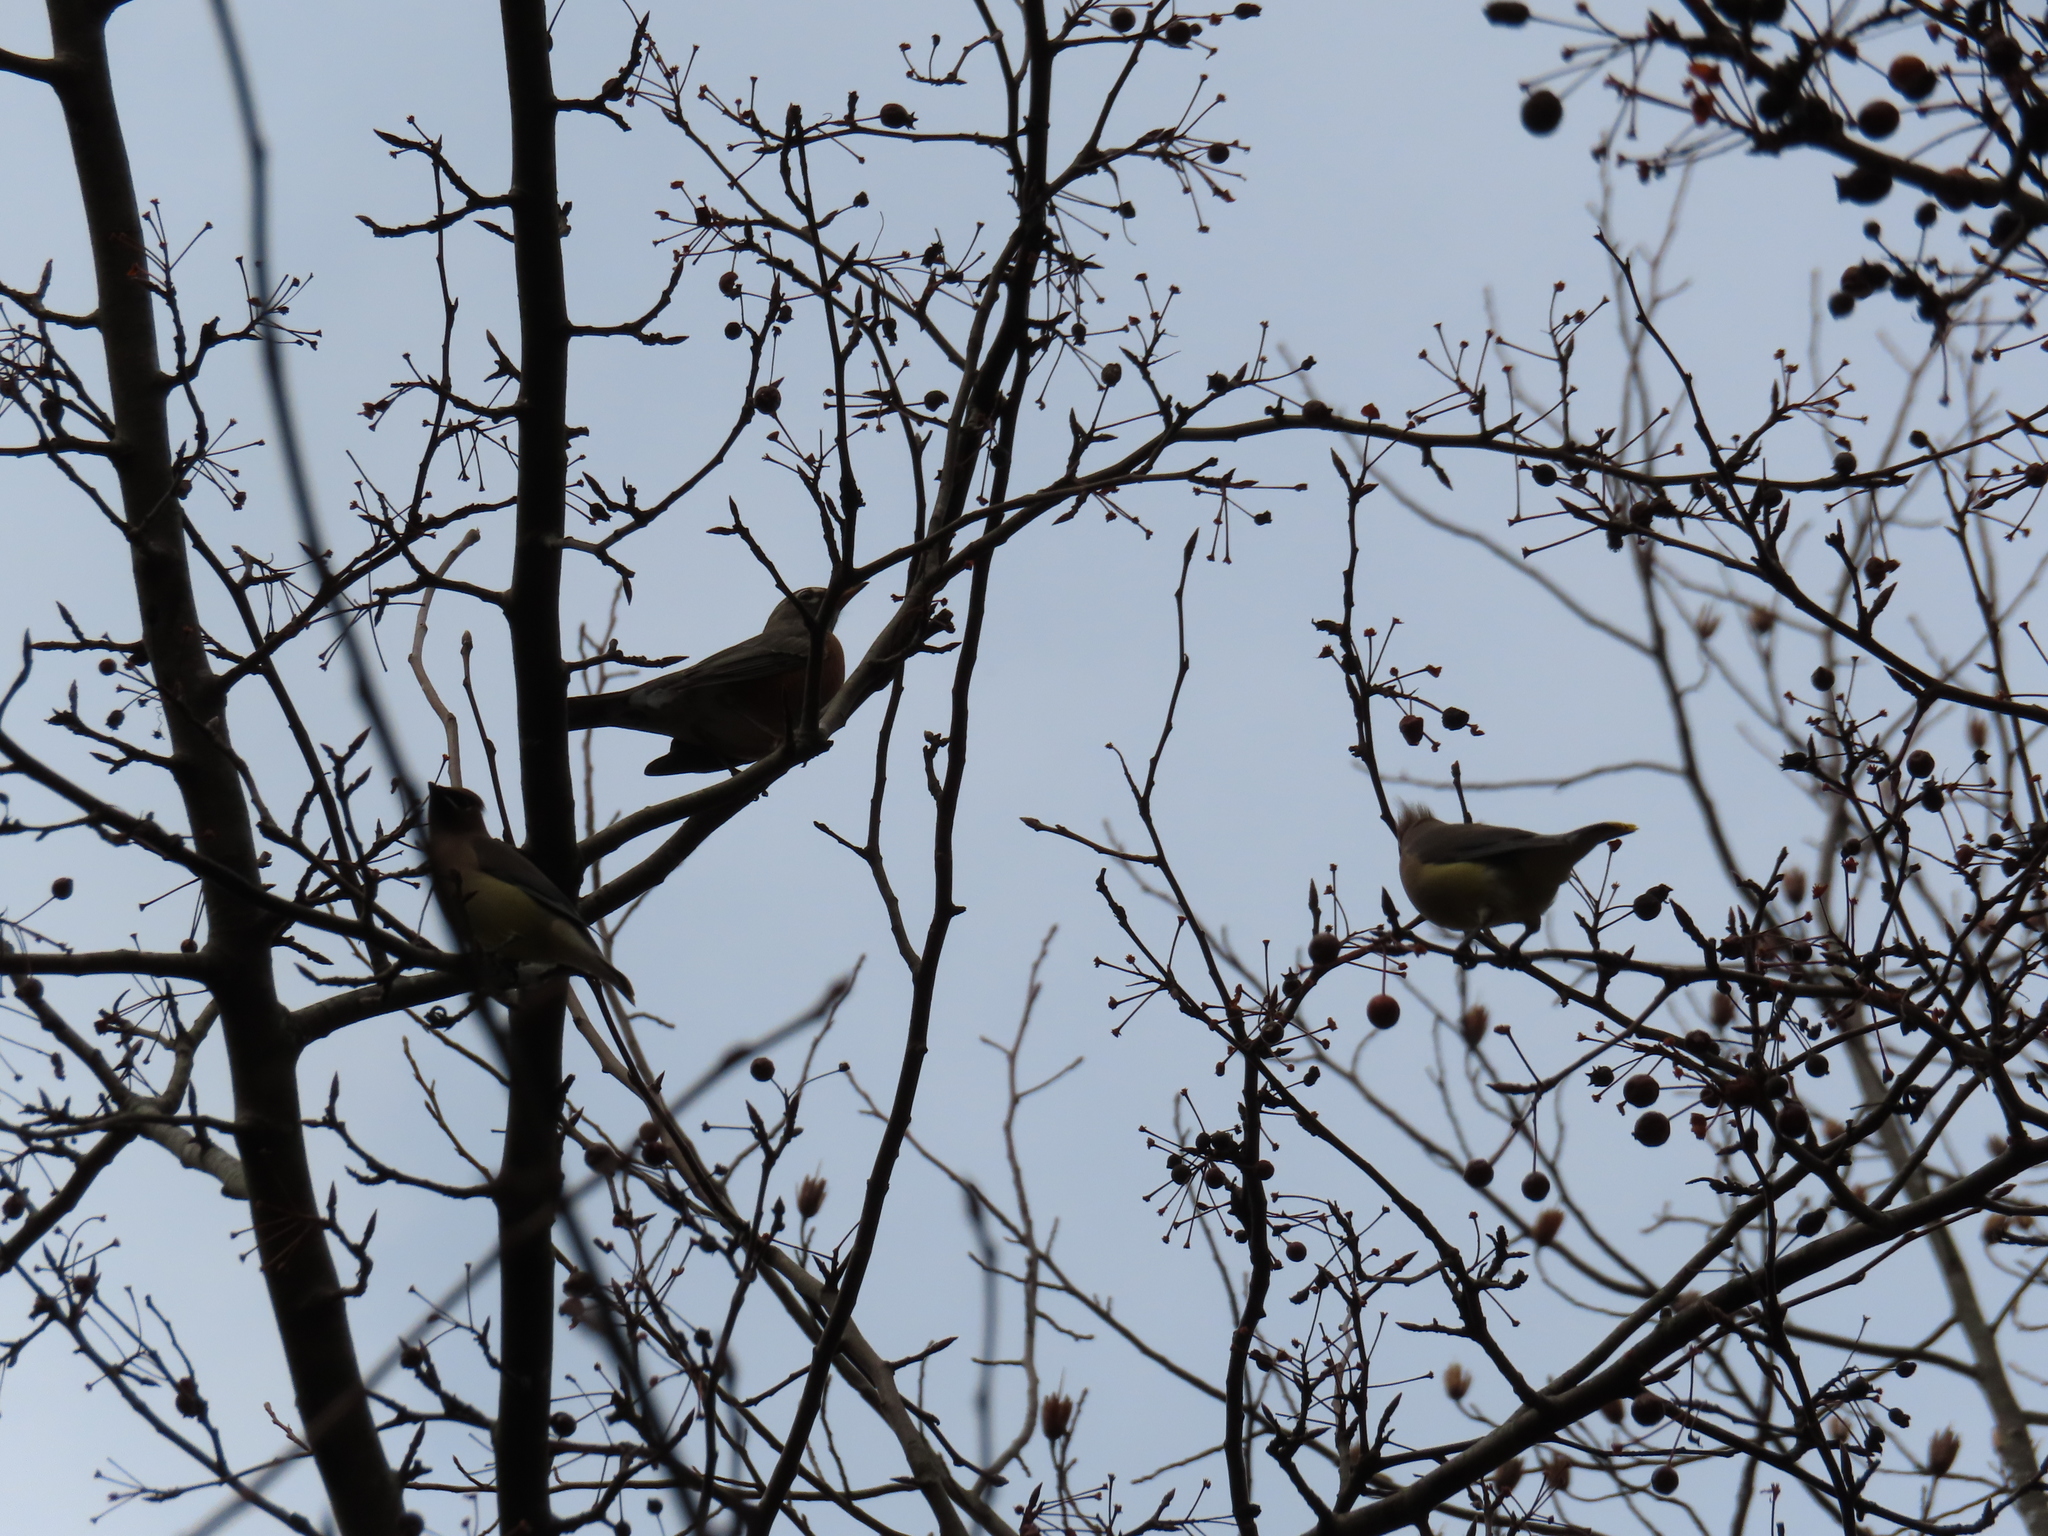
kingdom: Animalia
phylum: Chordata
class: Aves
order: Passeriformes
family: Turdidae
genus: Turdus
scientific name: Turdus migratorius
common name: American robin
